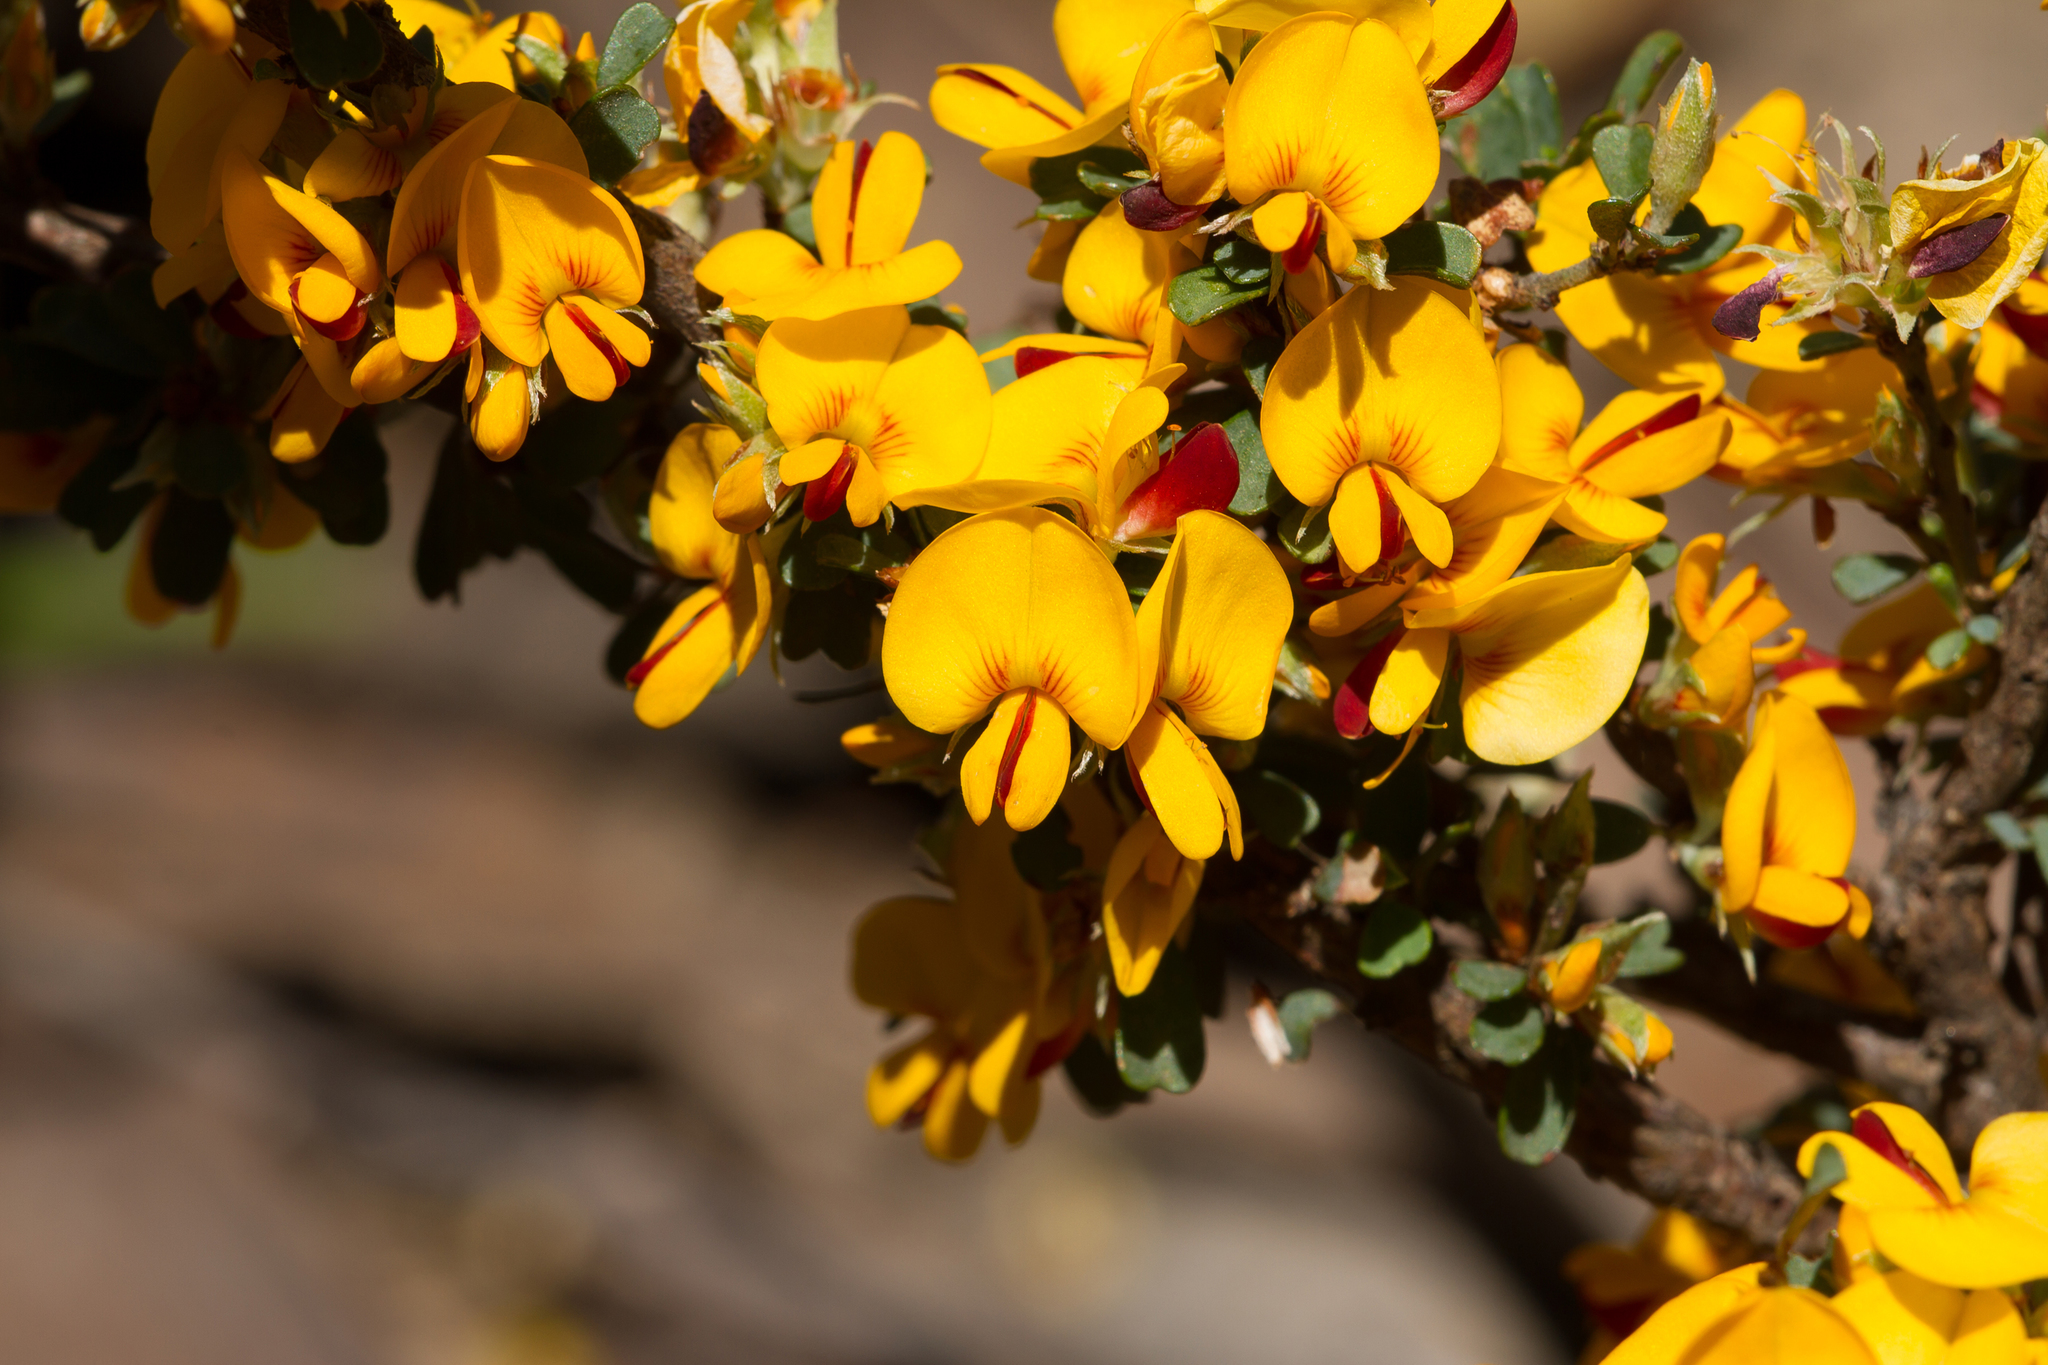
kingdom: Plantae
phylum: Tracheophyta
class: Magnoliopsida
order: Fabales
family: Fabaceae
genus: Pultenaea
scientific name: Pultenaea largiflorens
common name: Twiggy bush-pea
